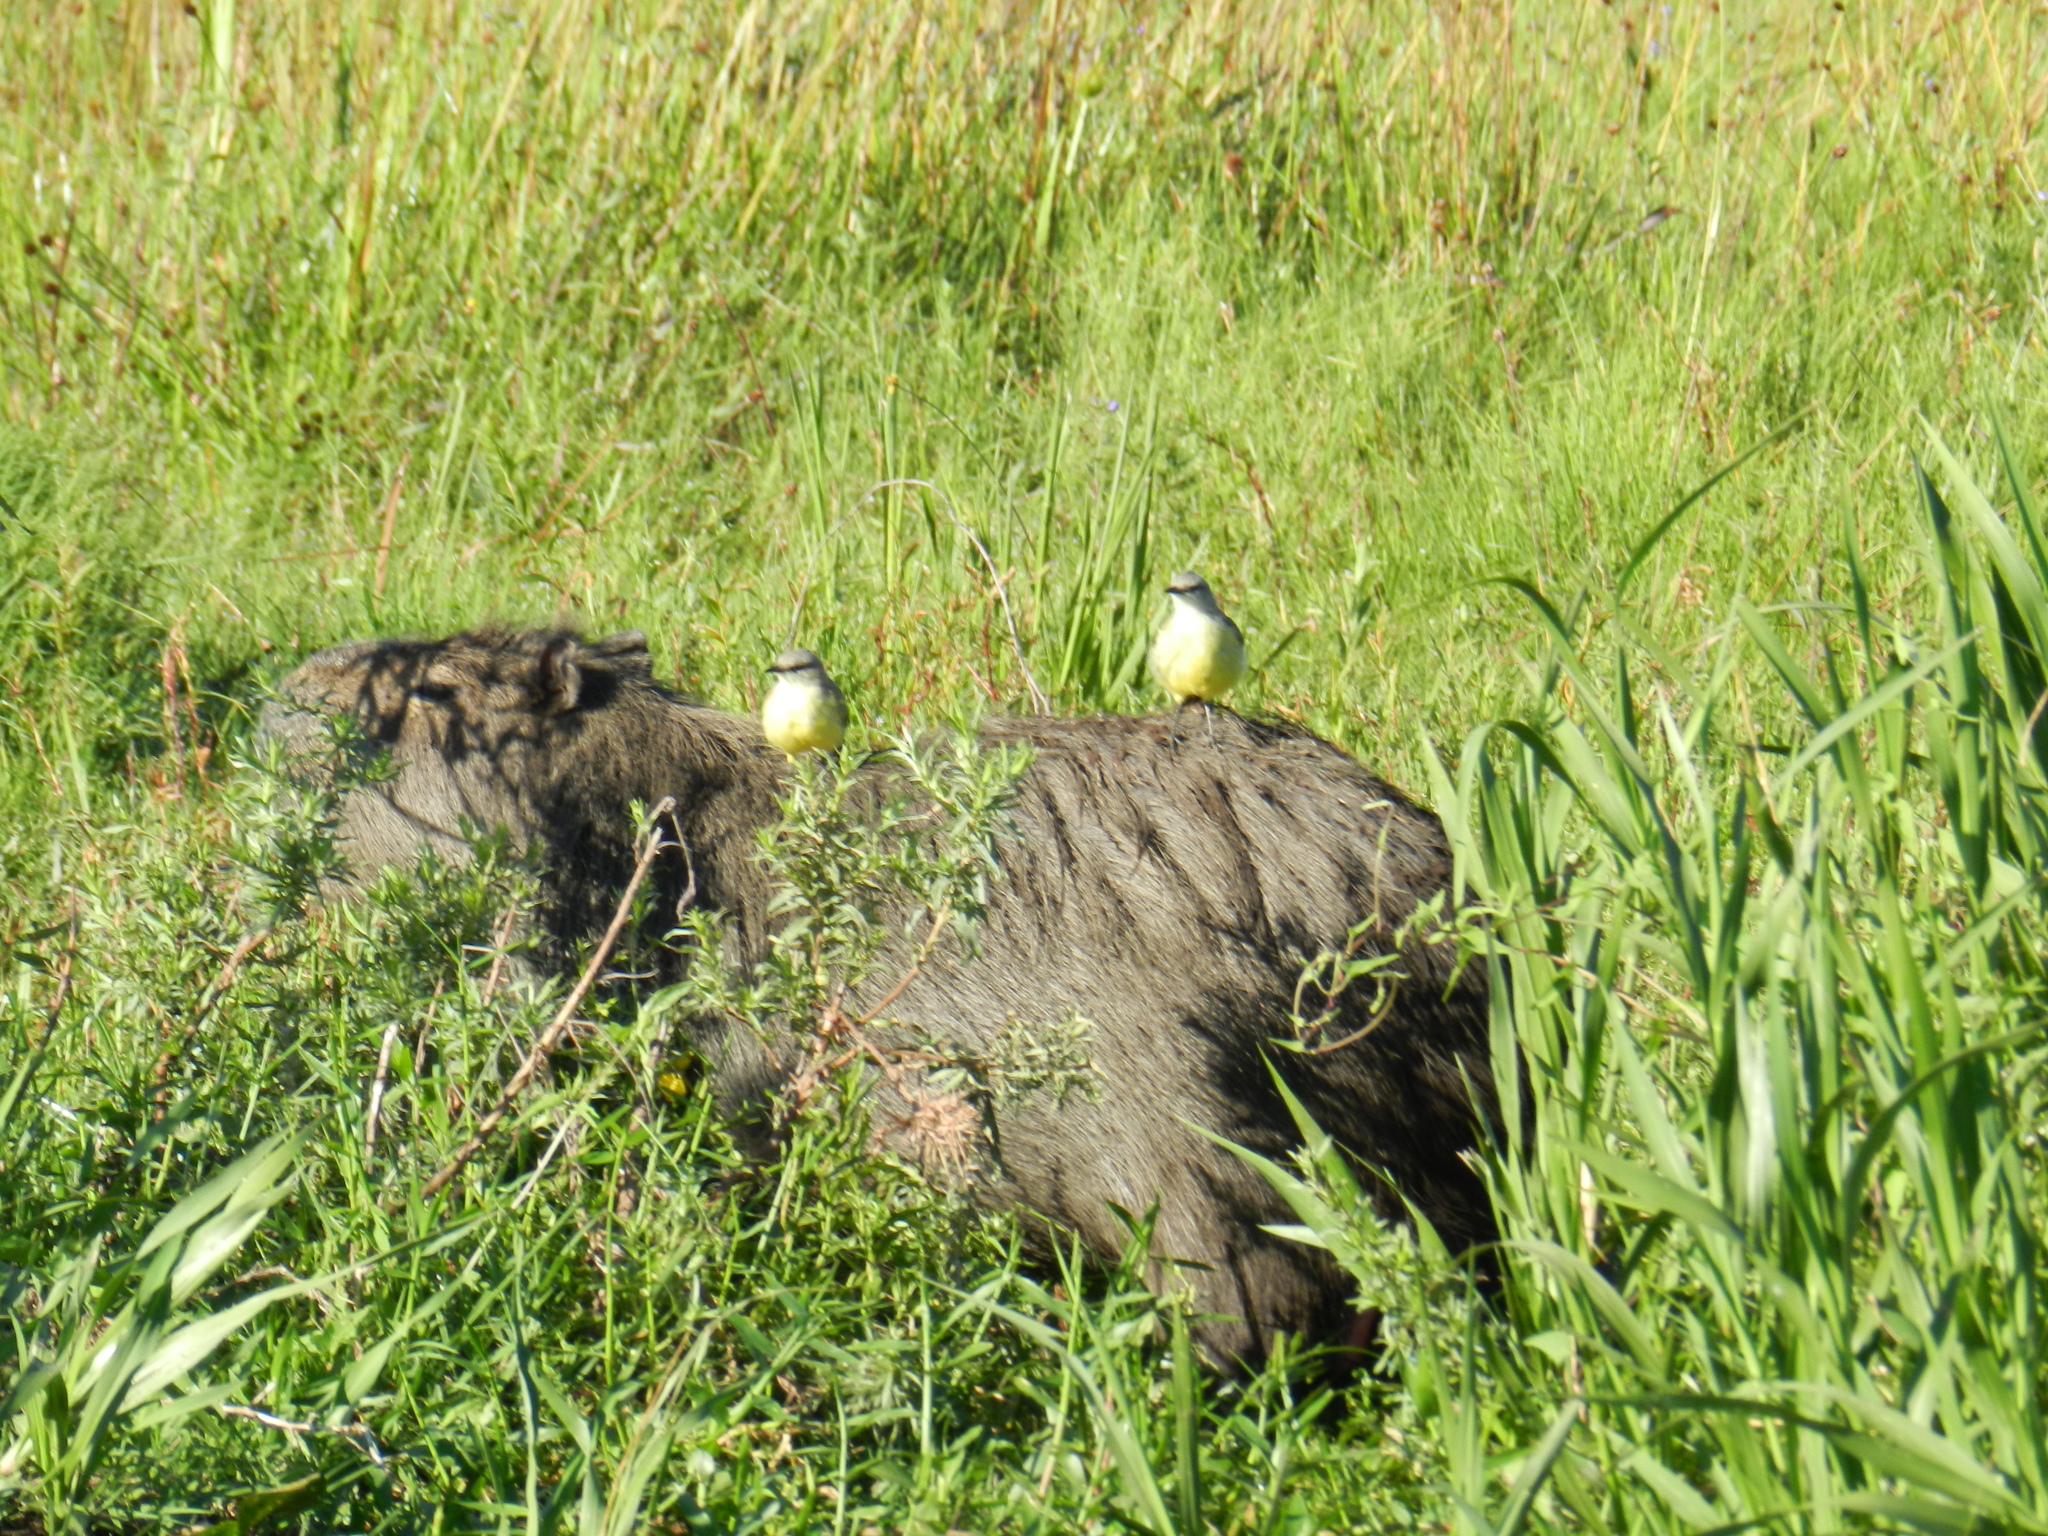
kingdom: Animalia
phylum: Chordata
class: Aves
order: Passeriformes
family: Tyrannidae
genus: Machetornis
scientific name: Machetornis rixosa
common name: Cattle tyrant
